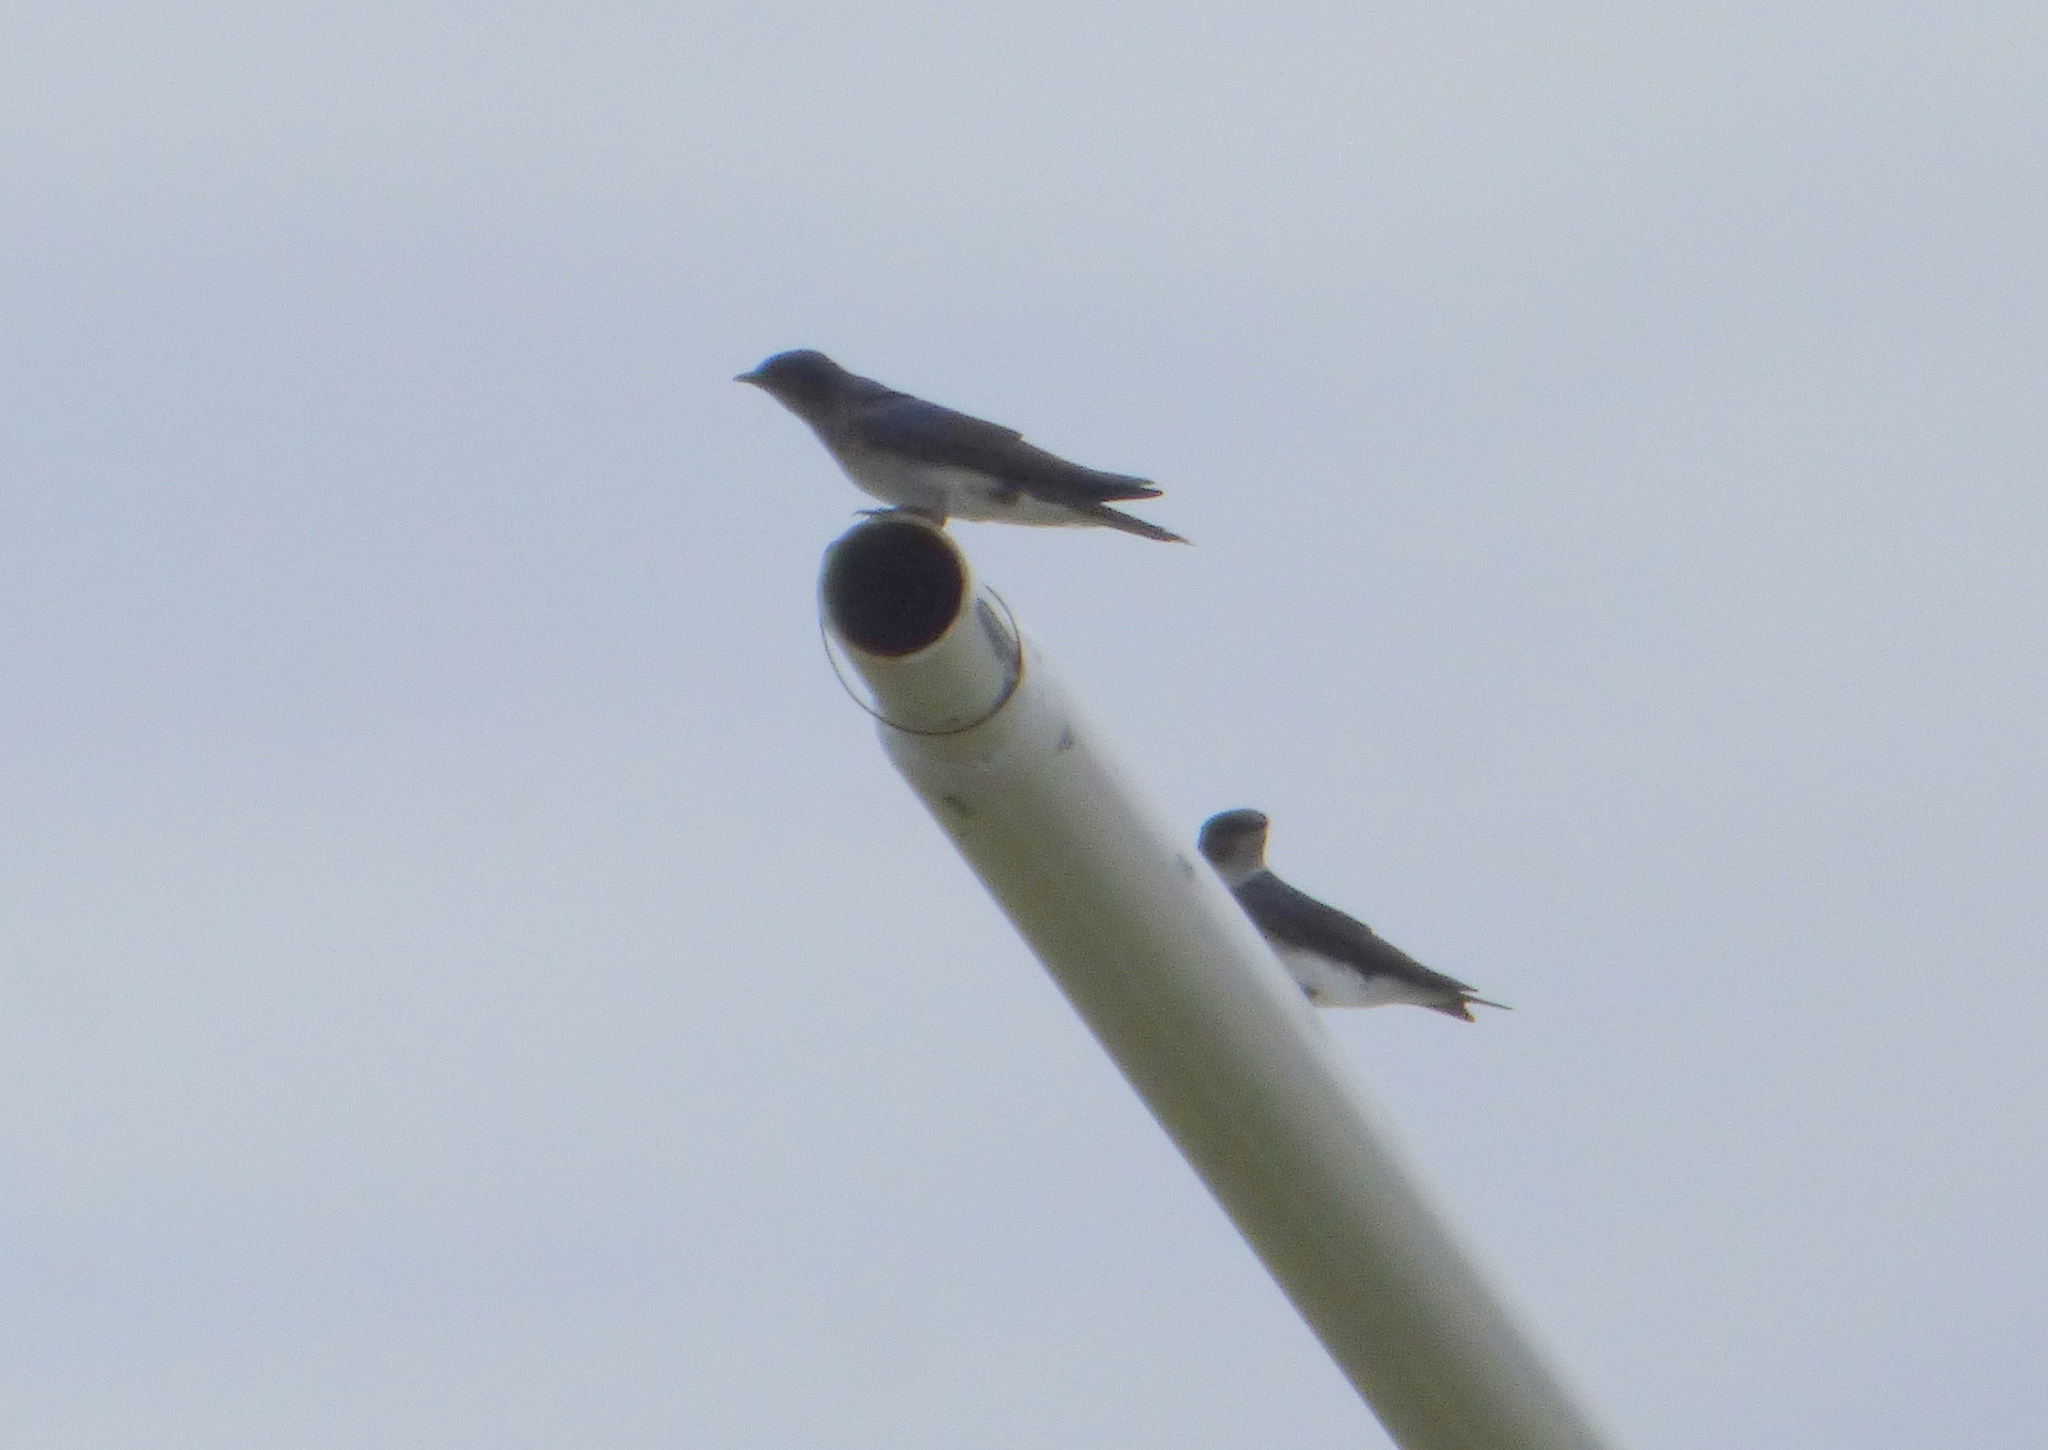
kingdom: Animalia
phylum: Chordata
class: Aves
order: Passeriformes
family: Hirundinidae
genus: Progne
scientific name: Progne chalybea
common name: Grey-breasted martin
